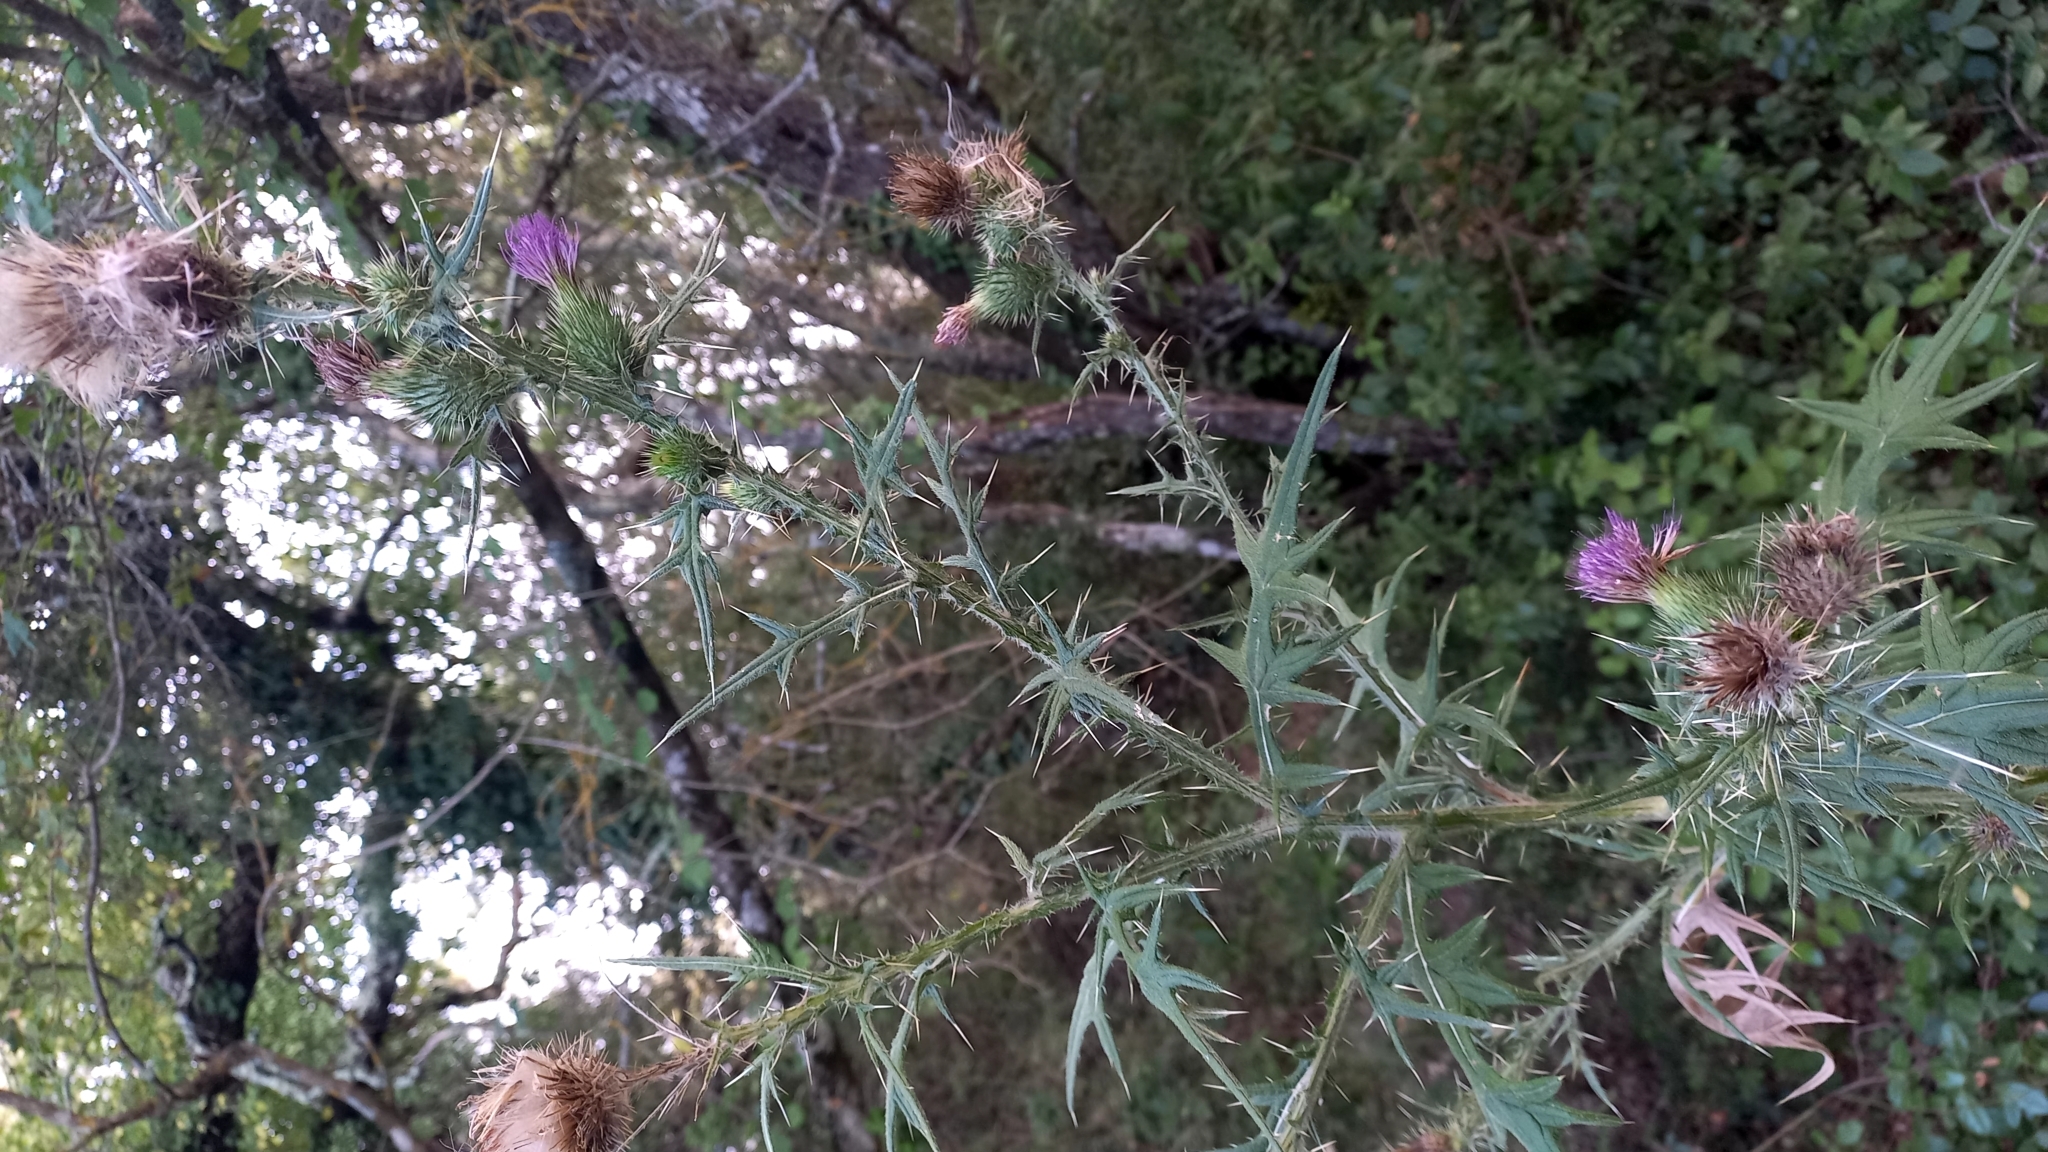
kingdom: Plantae
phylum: Tracheophyta
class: Magnoliopsida
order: Asterales
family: Asteraceae
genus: Cirsium
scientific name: Cirsium vulgare
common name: Bull thistle
